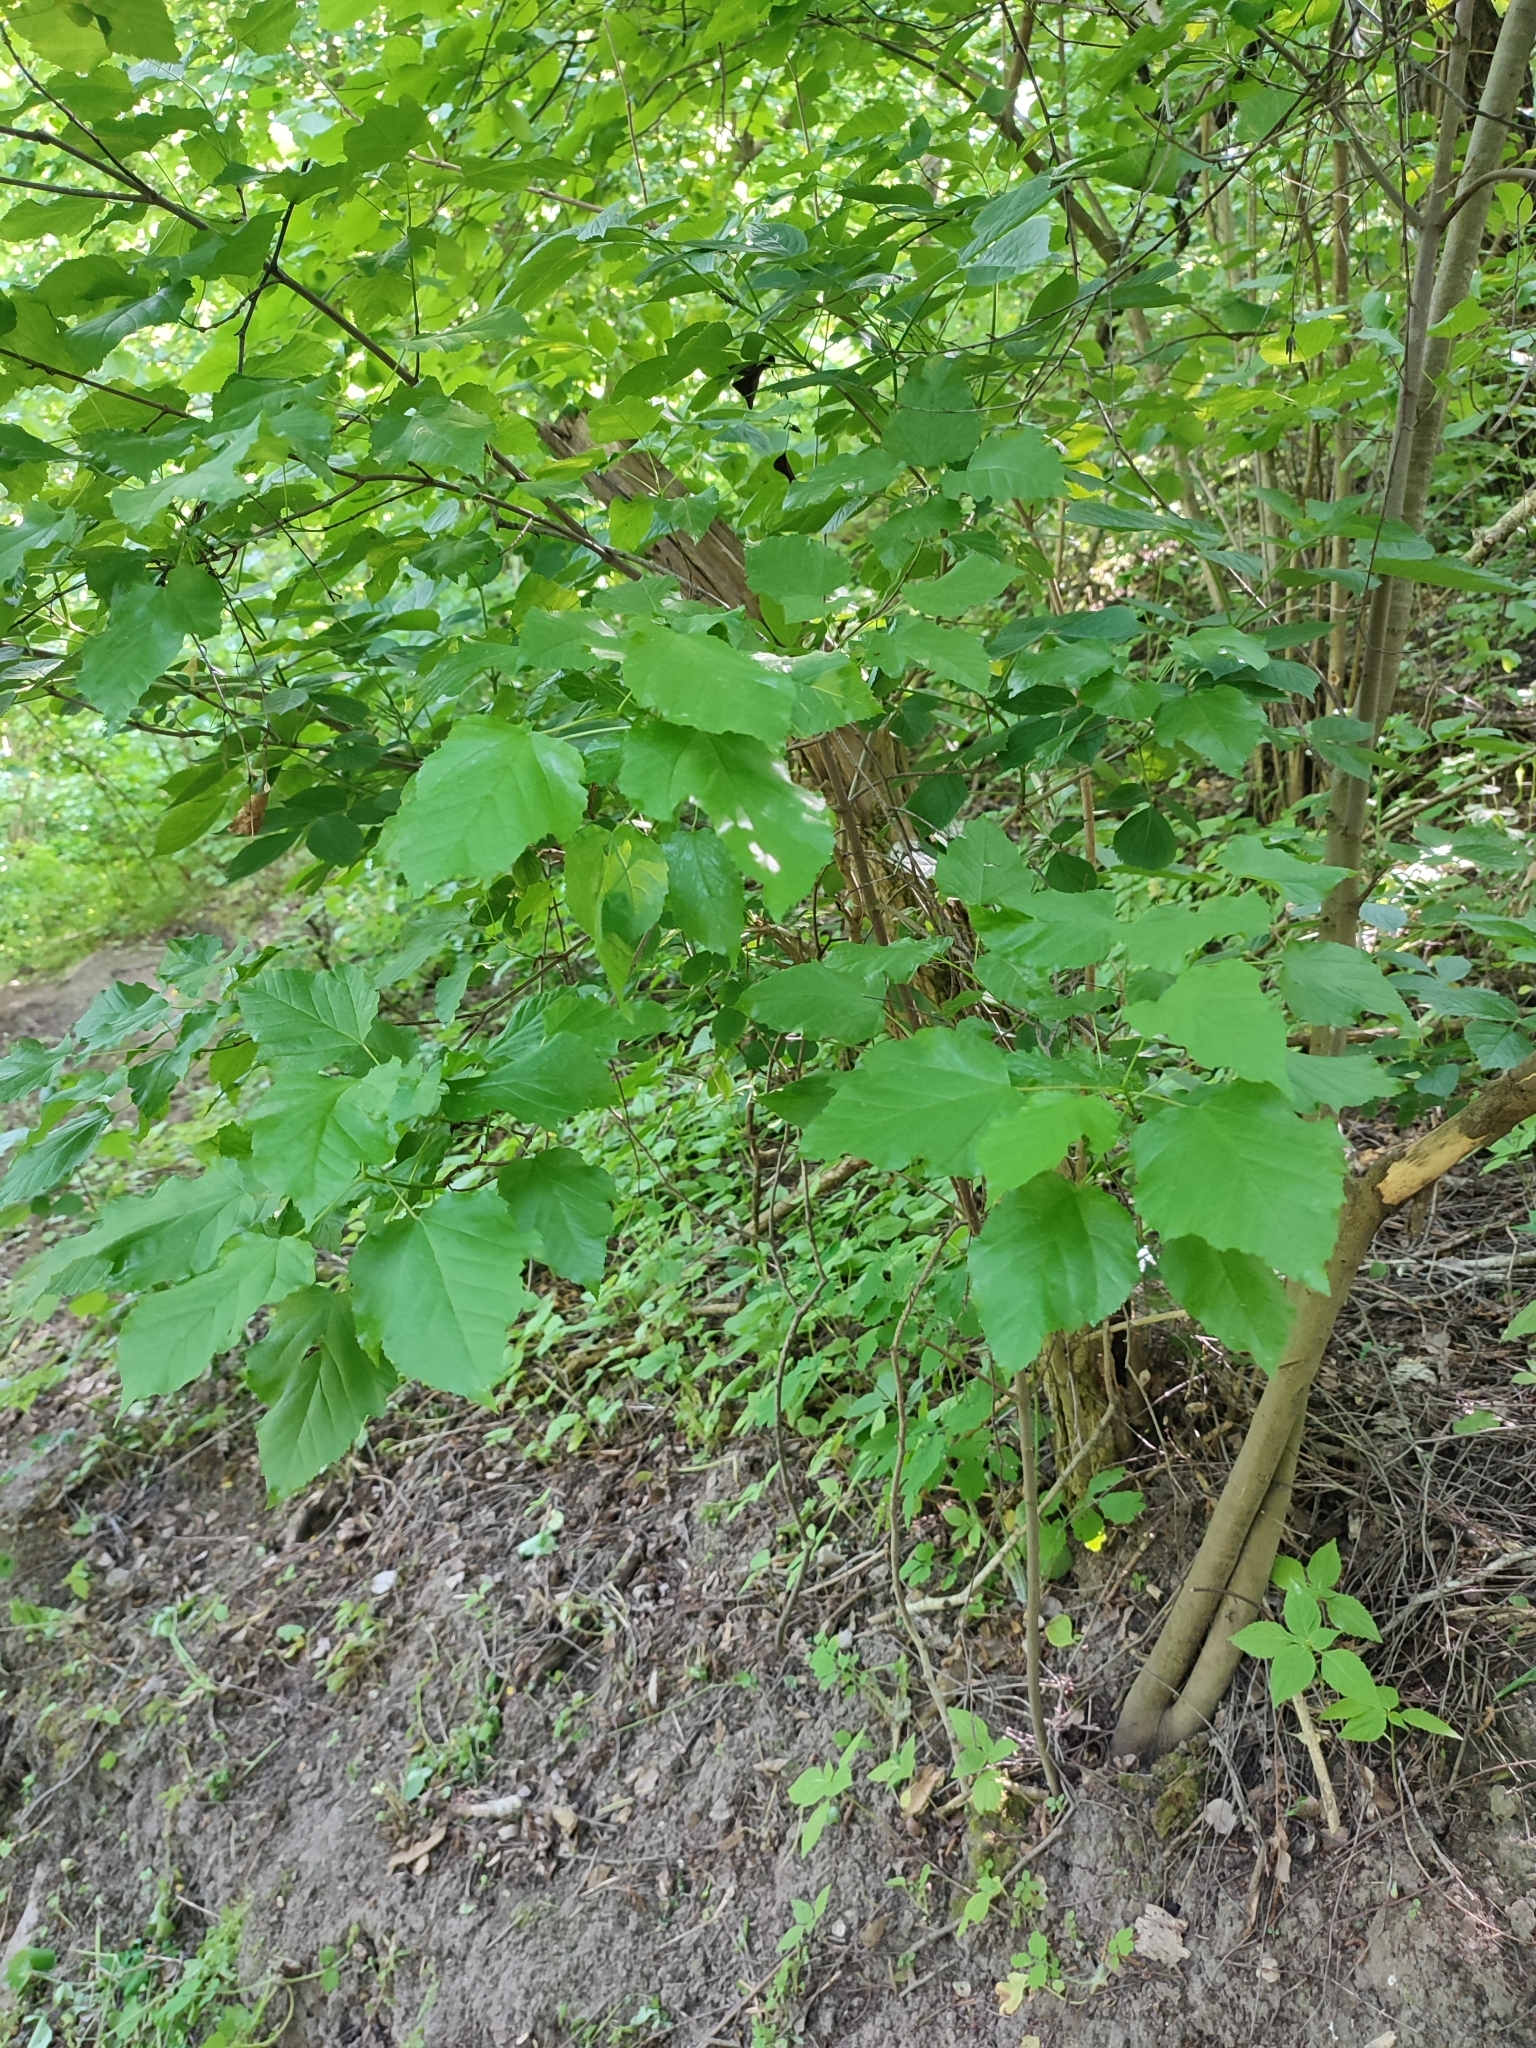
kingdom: Plantae
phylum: Tracheophyta
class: Magnoliopsida
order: Sapindales
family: Sapindaceae
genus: Acer
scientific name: Acer tataricum
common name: Tartar maple
